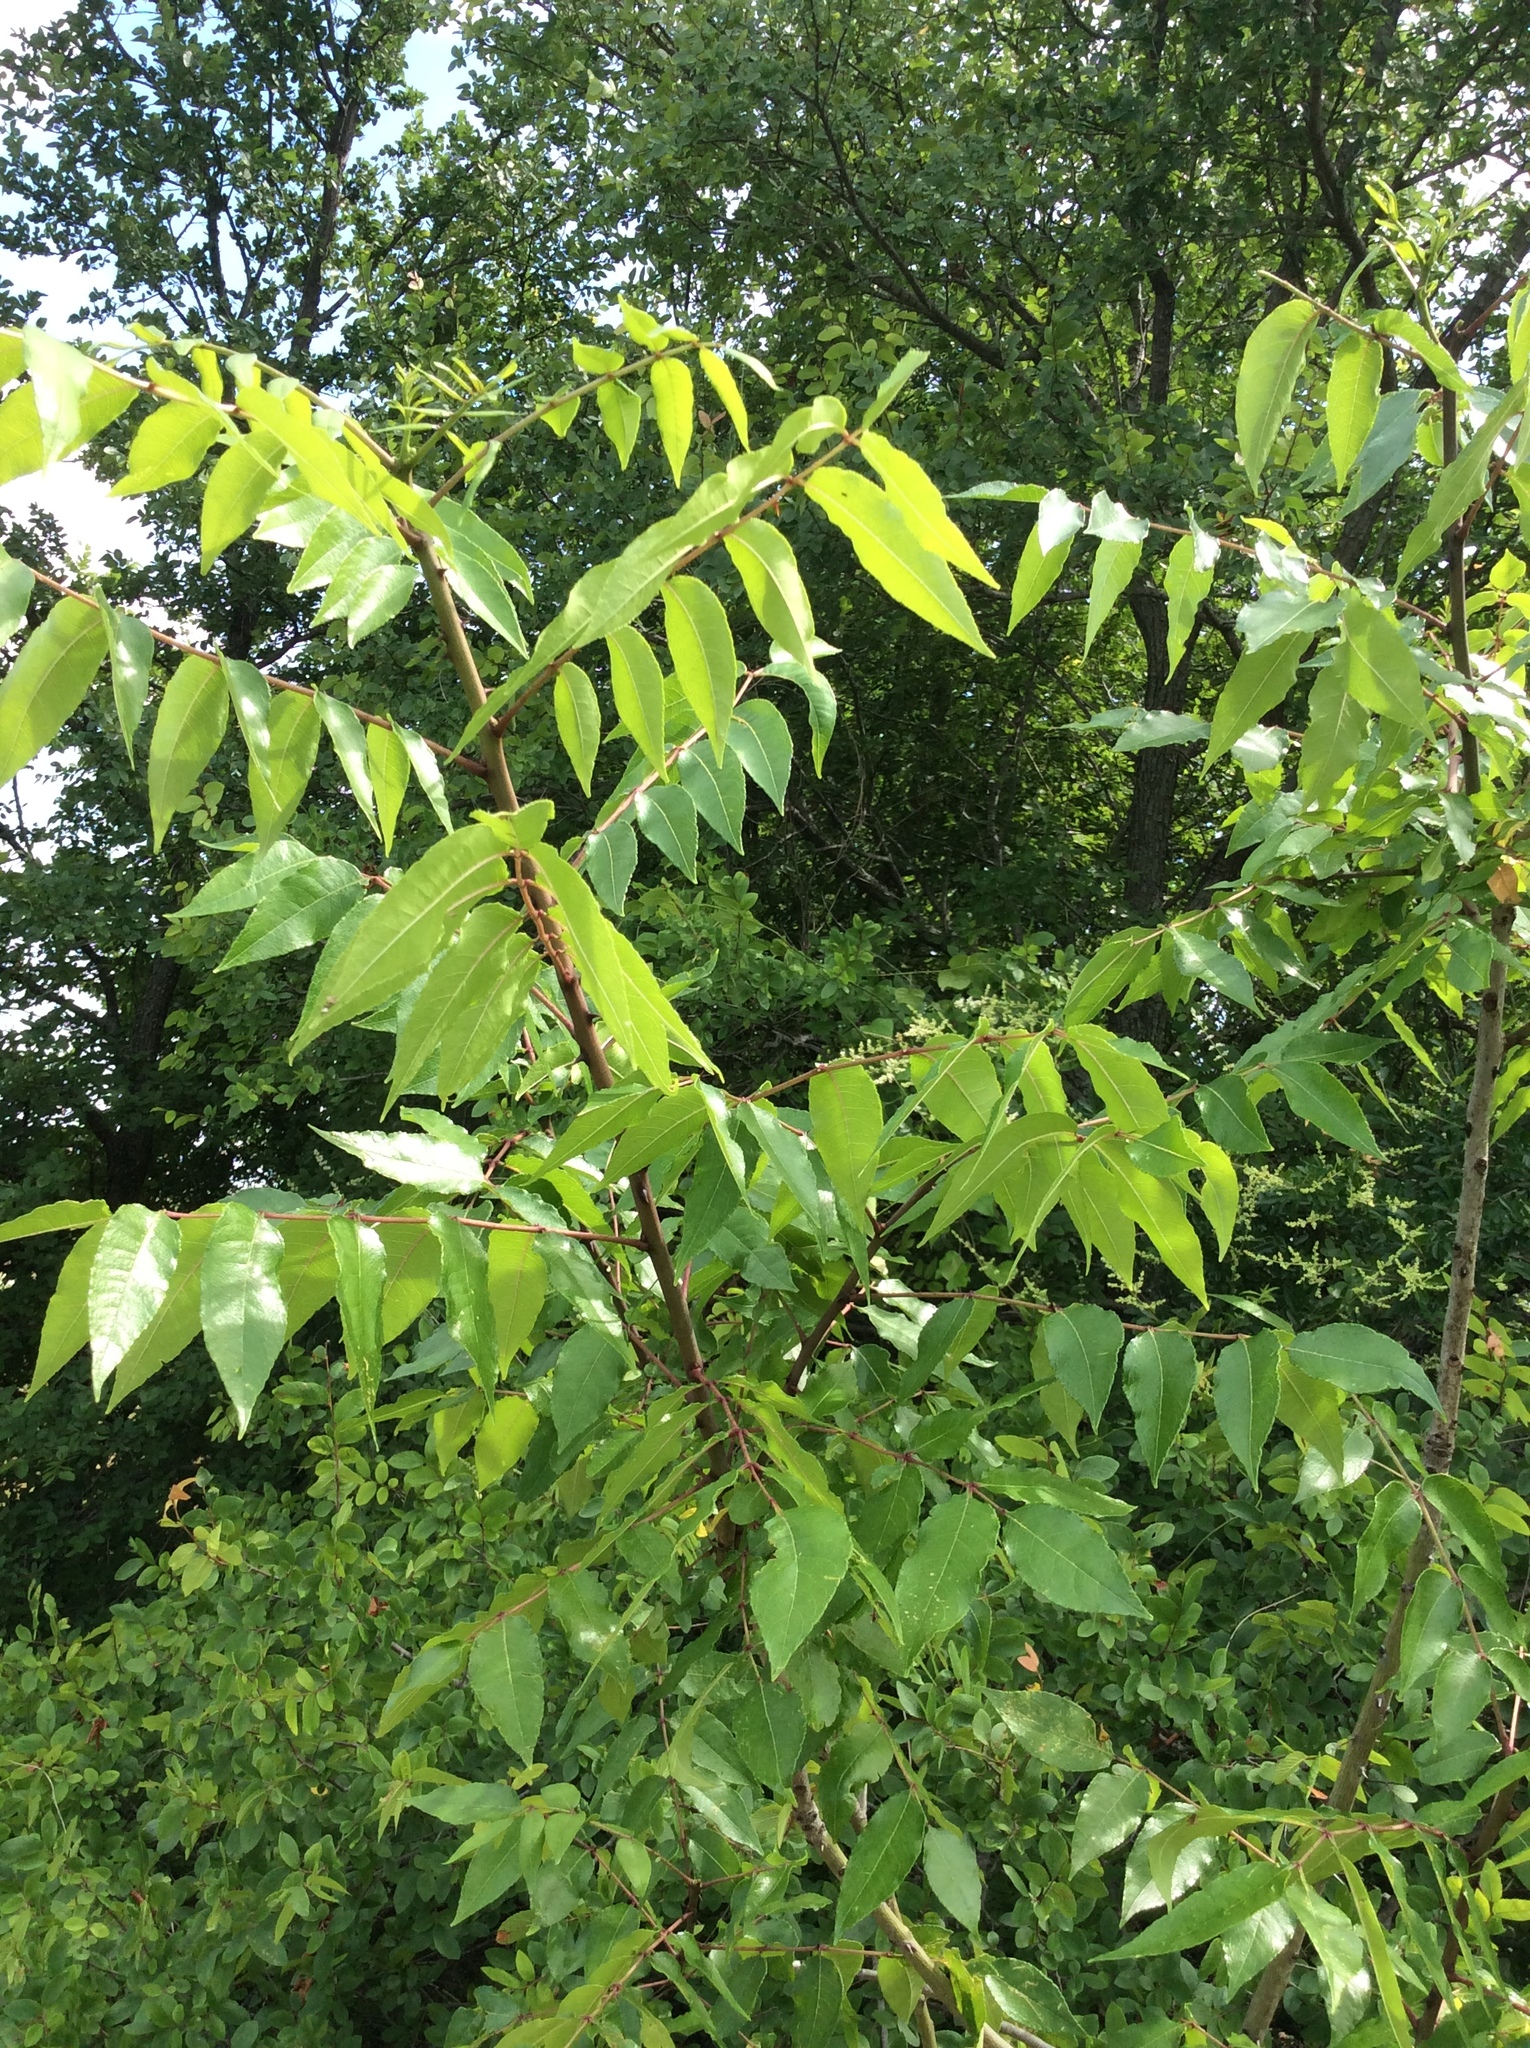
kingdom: Plantae
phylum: Tracheophyta
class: Magnoliopsida
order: Sapindales
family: Rutaceae
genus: Zanthoxylum
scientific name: Zanthoxylum clava-herculis
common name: Hercules'-club
